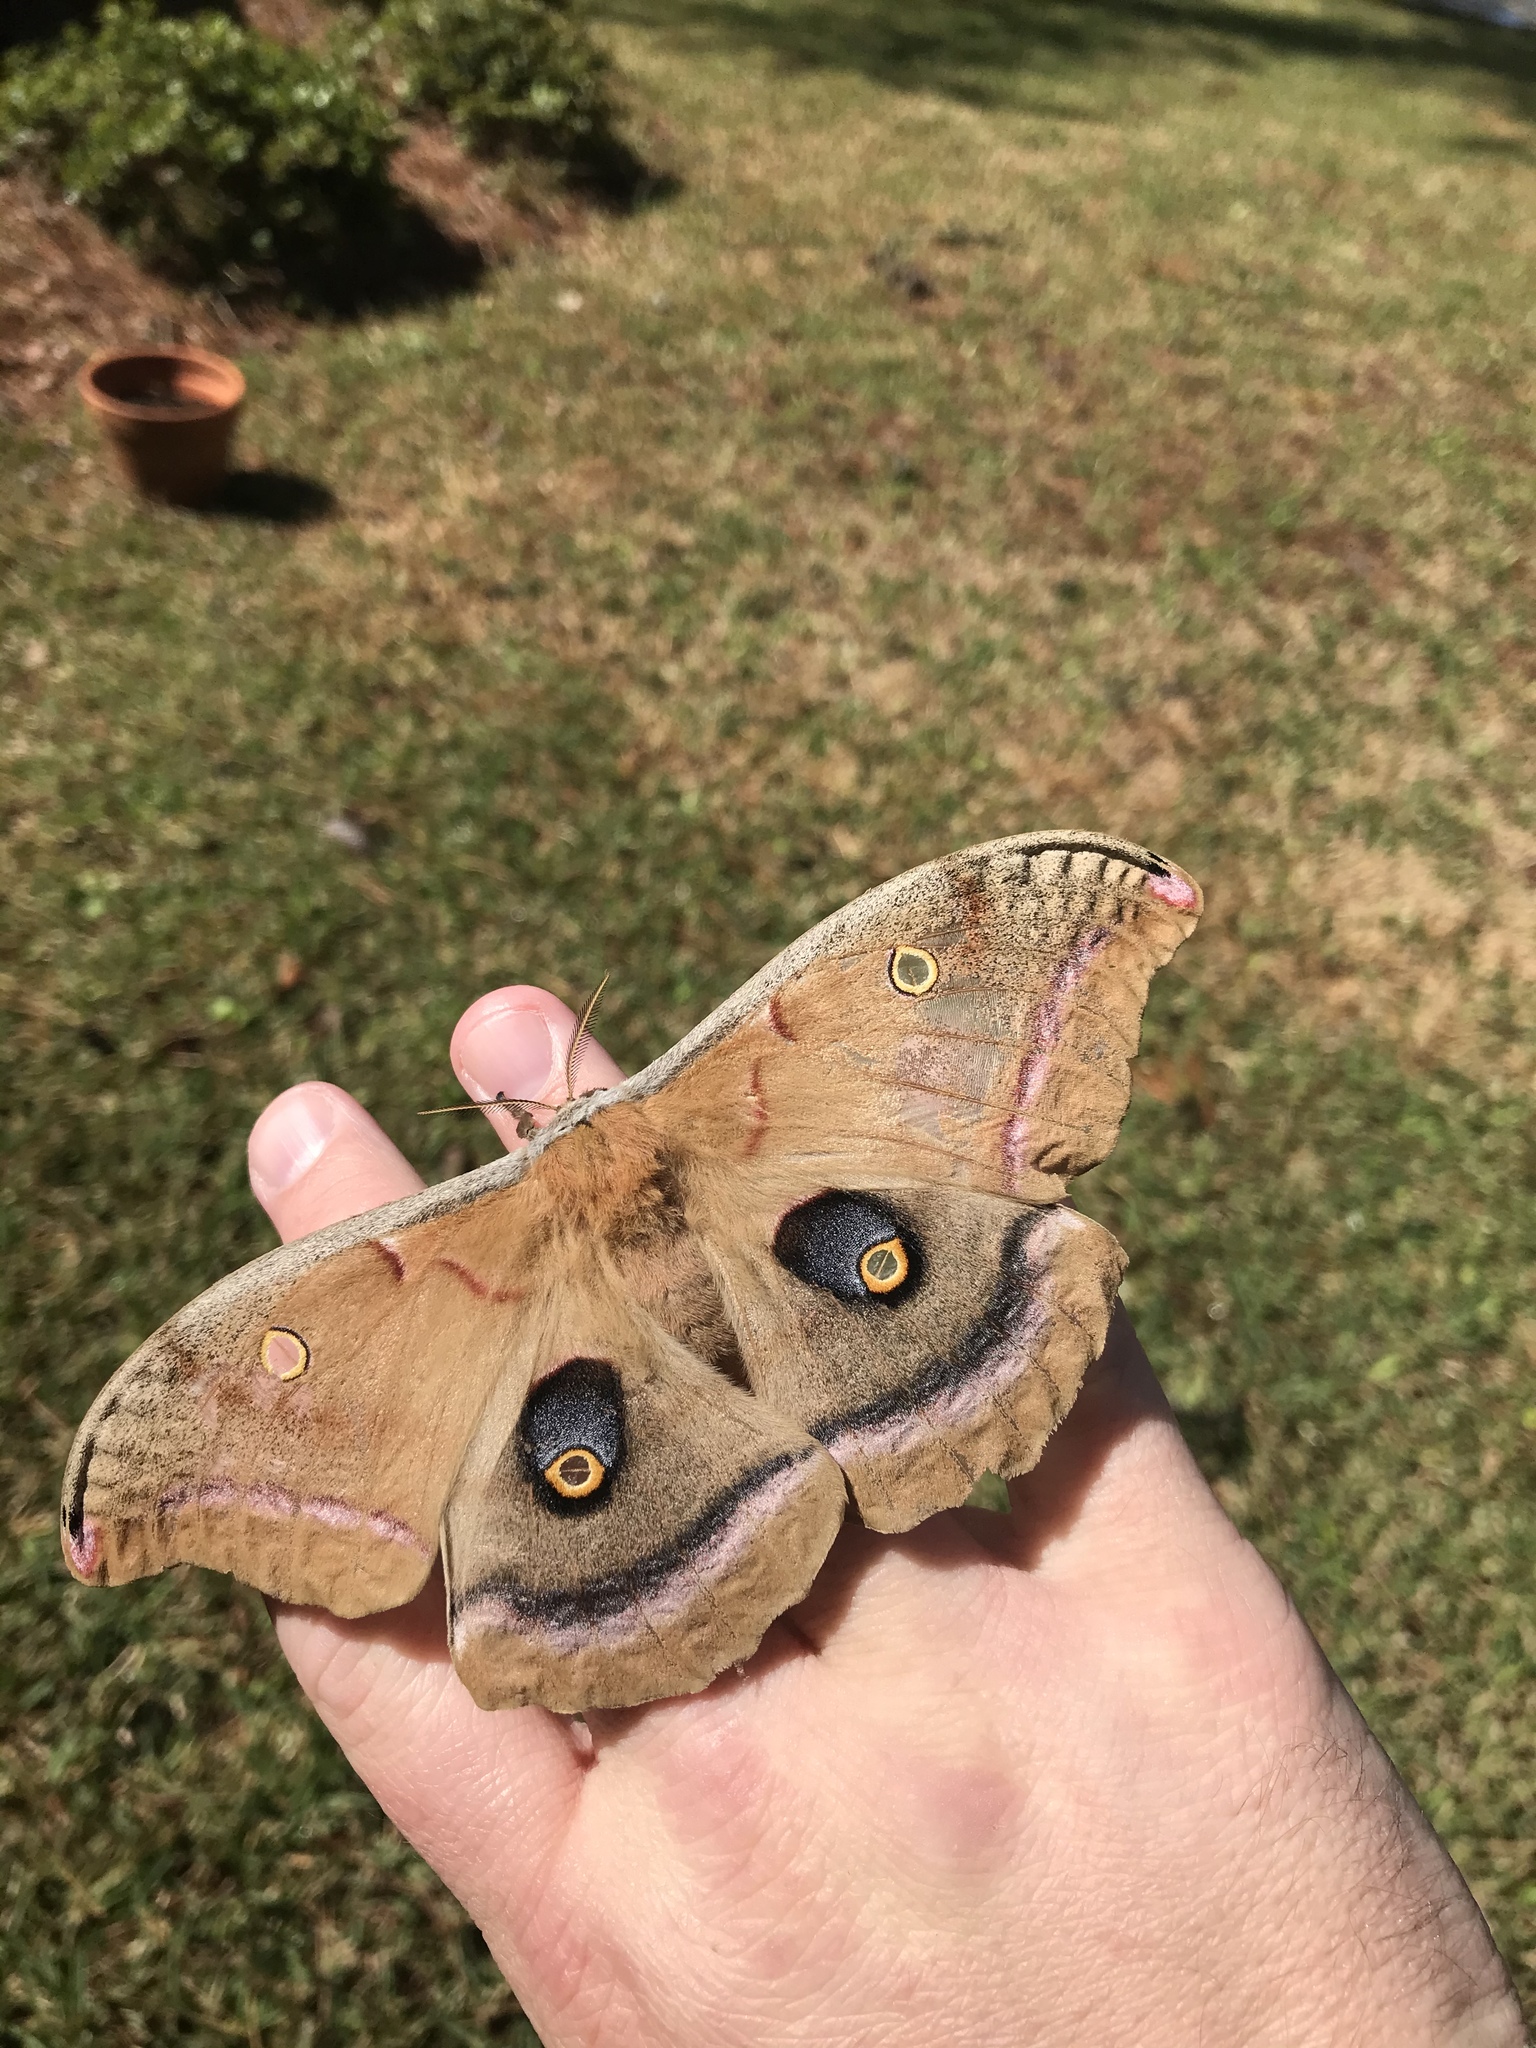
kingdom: Animalia
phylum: Arthropoda
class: Insecta
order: Lepidoptera
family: Saturniidae
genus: Antheraea
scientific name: Antheraea polyphemus
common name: Polyphemus moth
